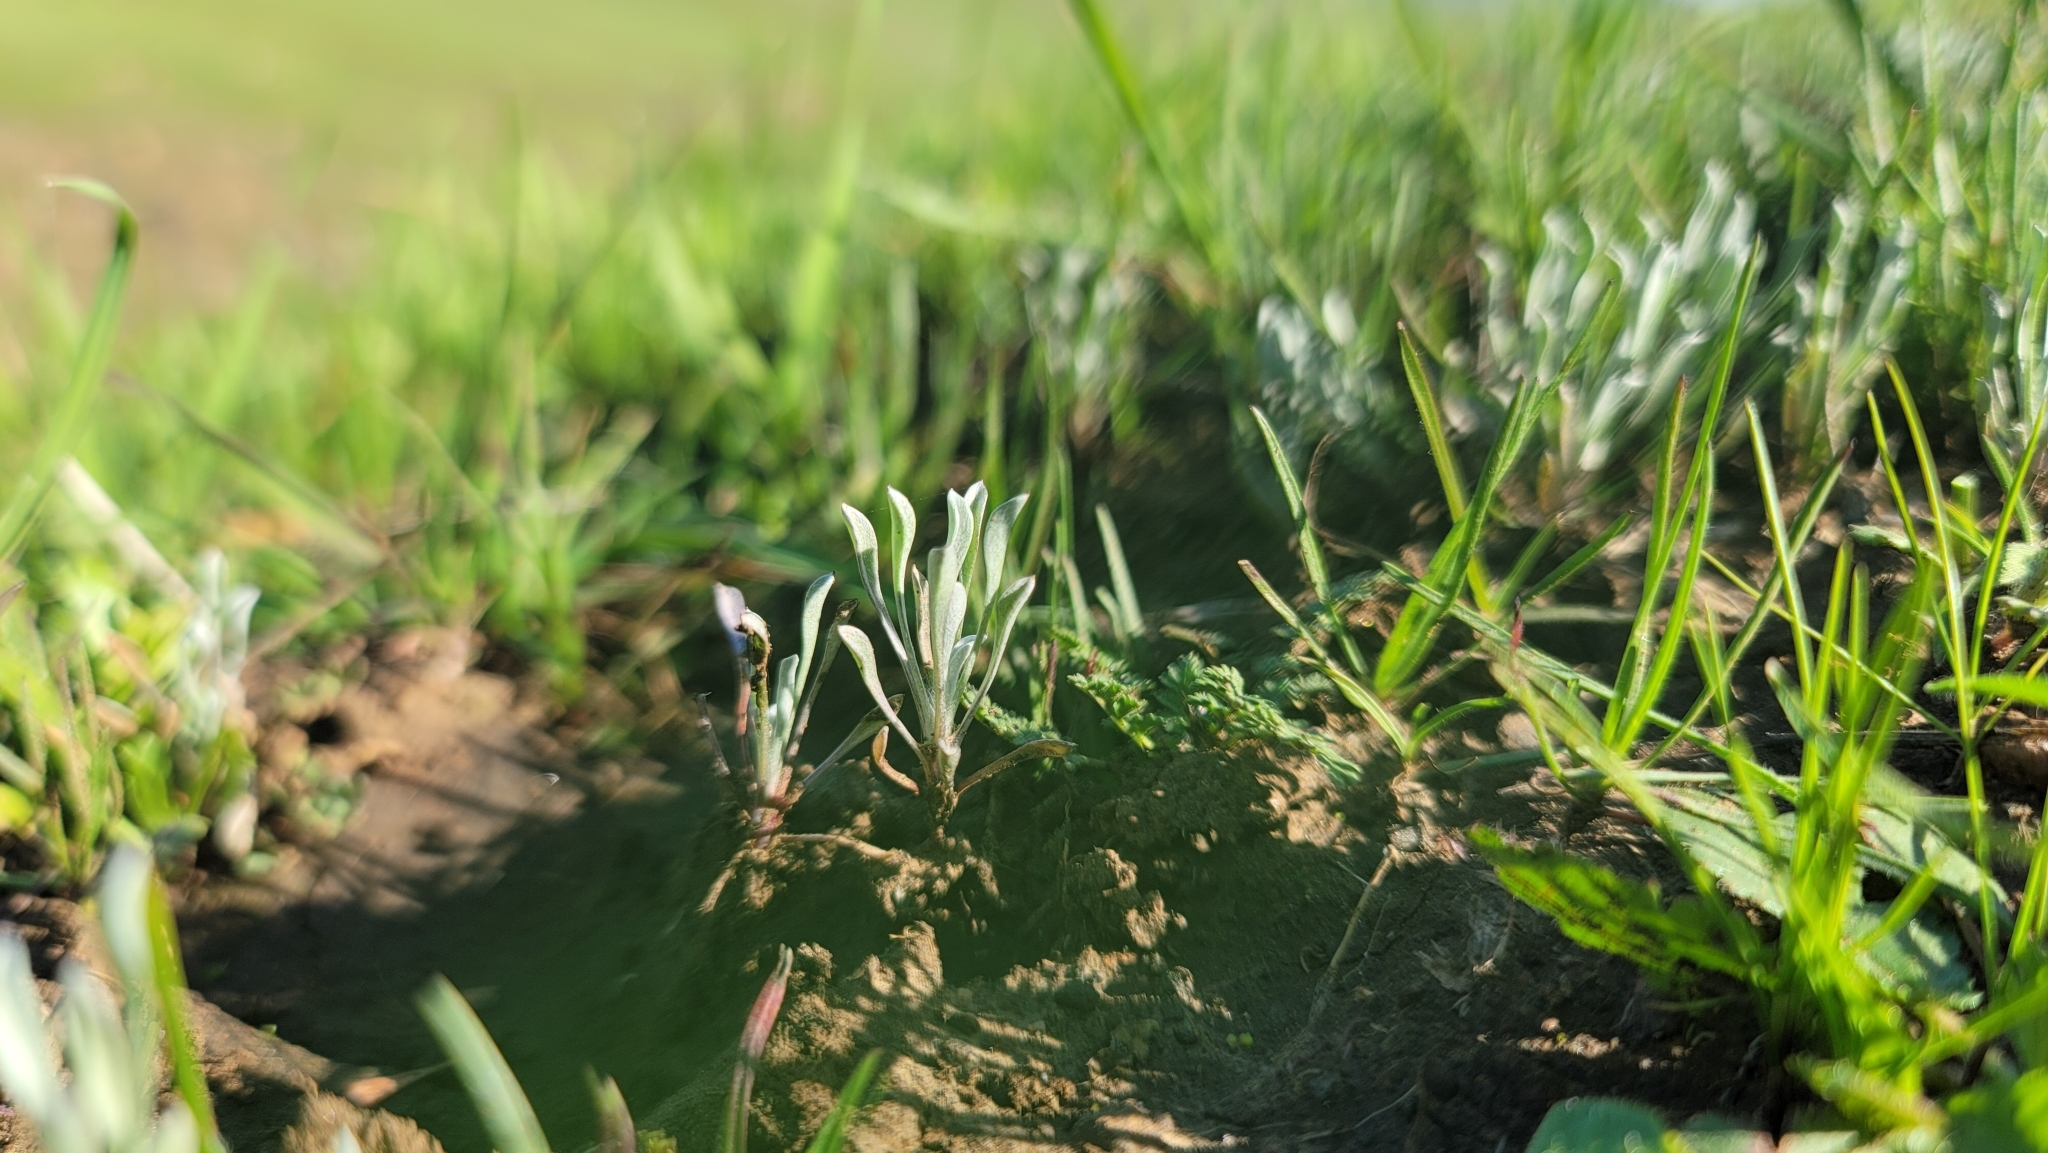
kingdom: Plantae
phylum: Tracheophyta
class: Magnoliopsida
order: Asterales
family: Asteraceae
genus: Hesperevax
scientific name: Hesperevax caulescens
